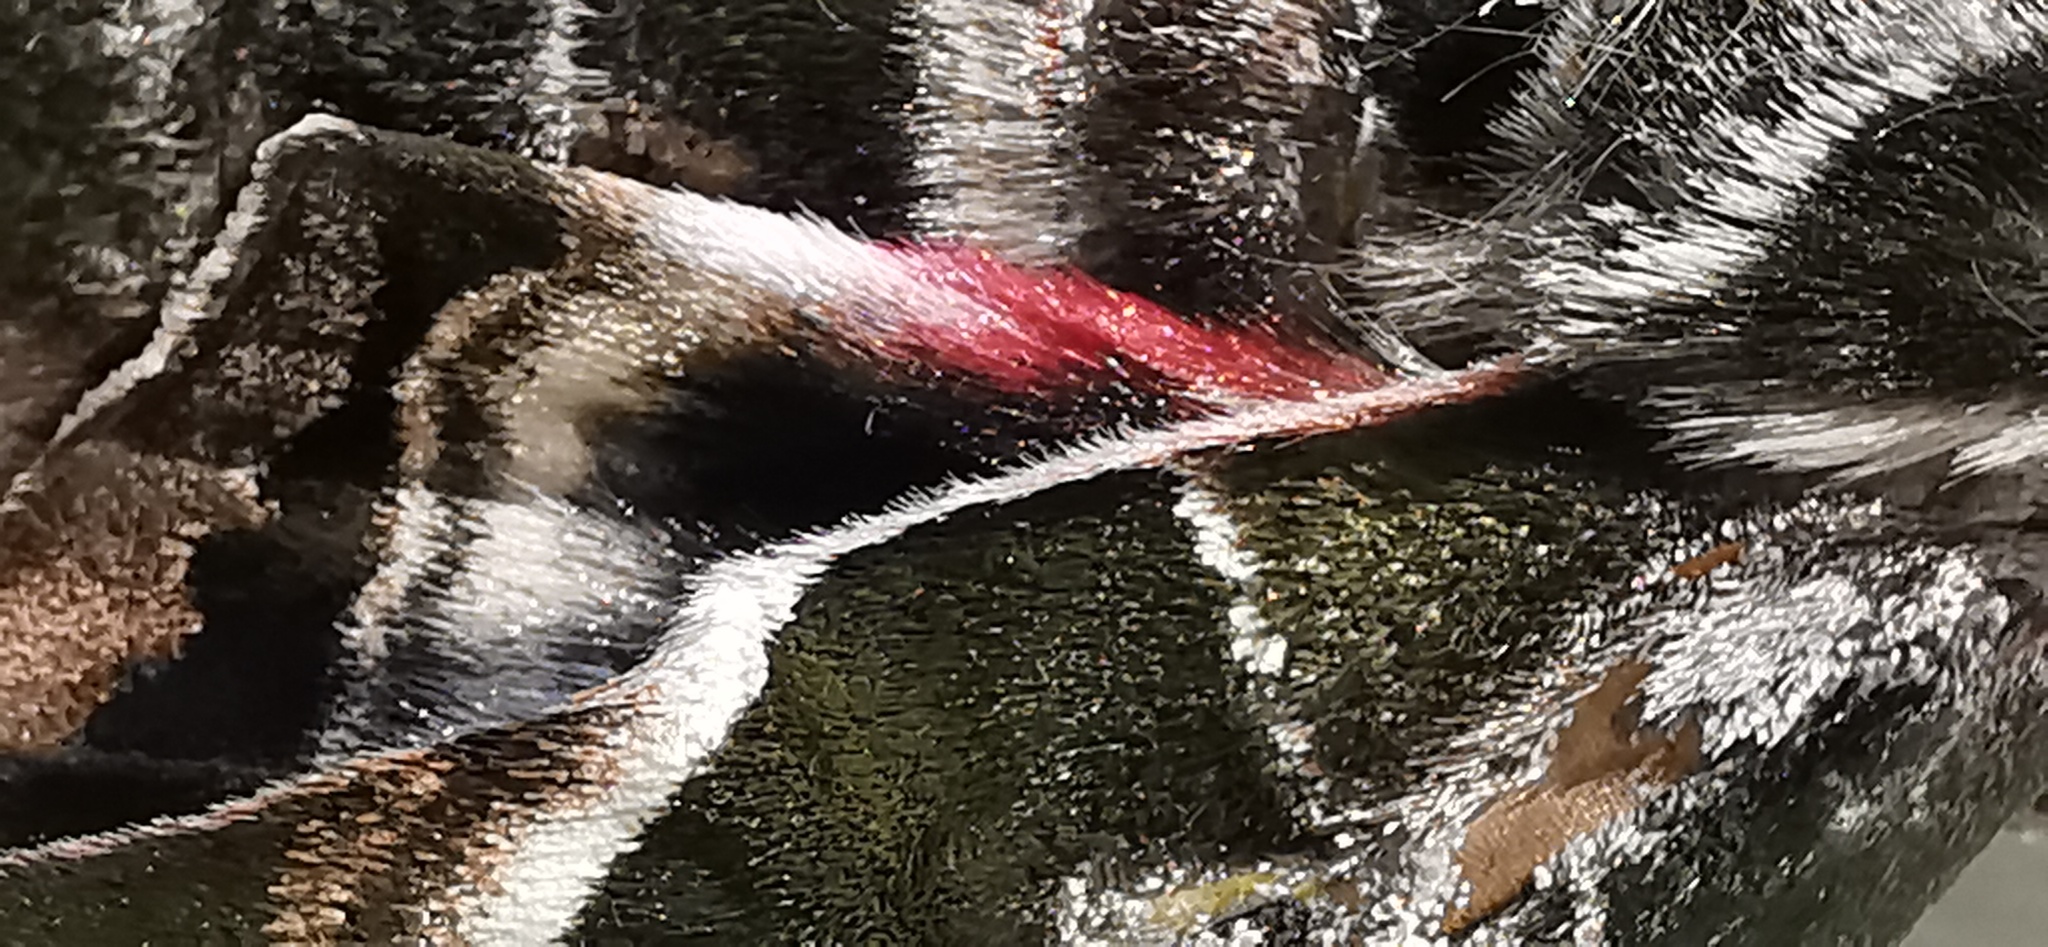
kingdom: Animalia
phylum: Arthropoda
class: Insecta
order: Lepidoptera
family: Sphingidae
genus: Eumorpha
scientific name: Eumorpha vitis
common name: Vine sphinx
